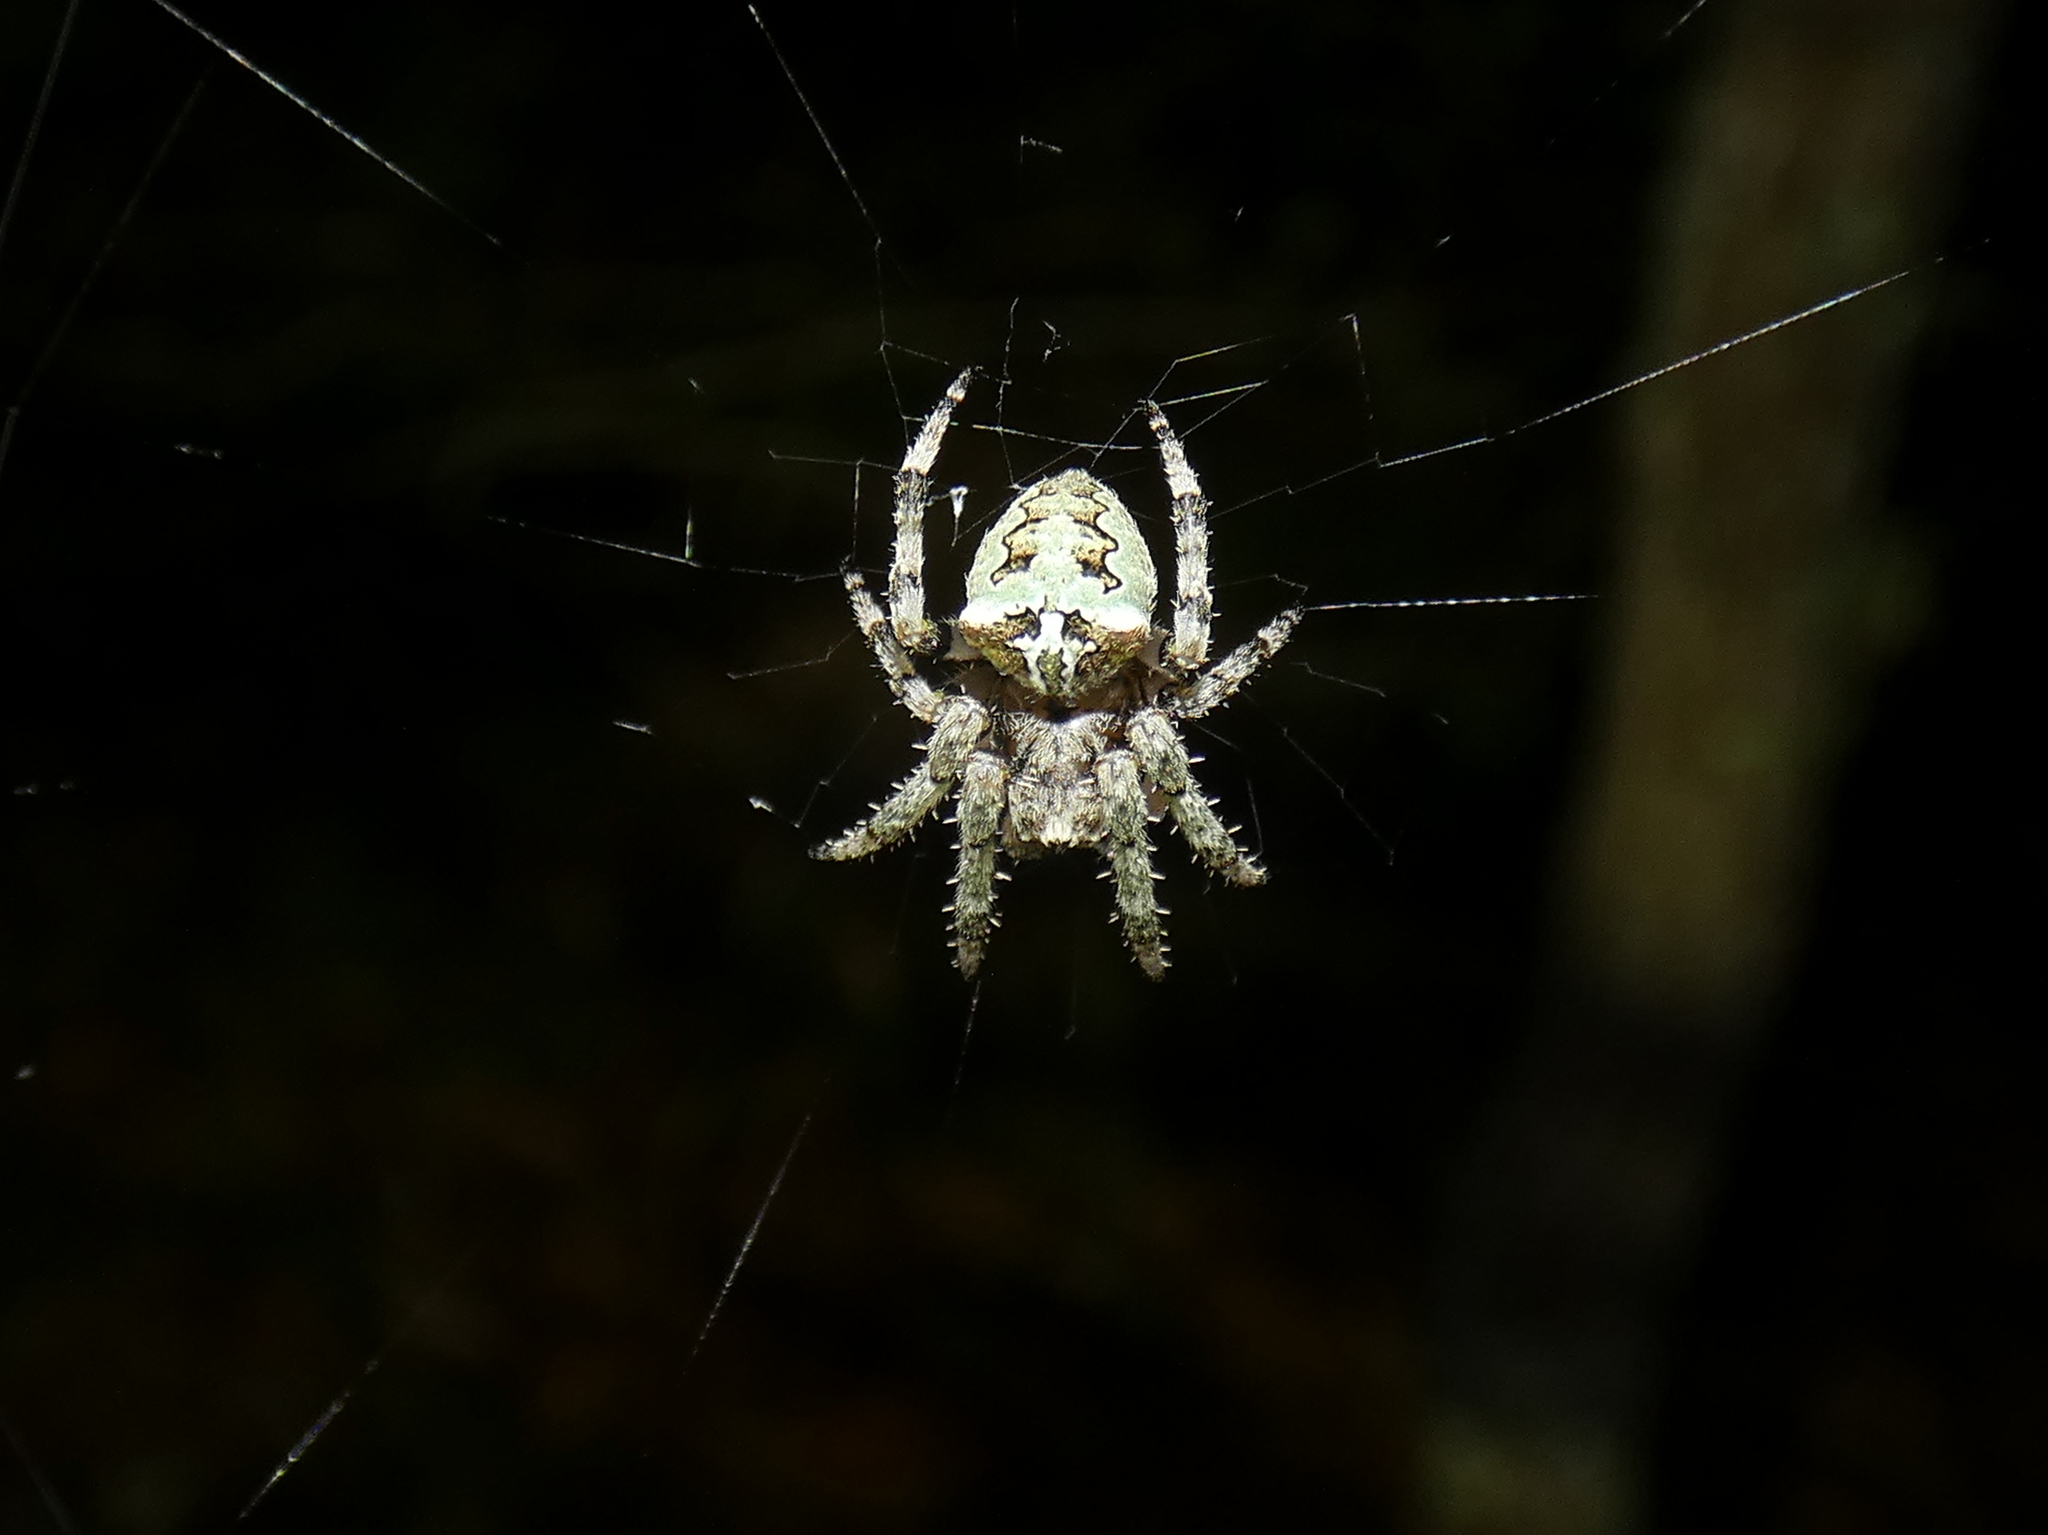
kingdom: Animalia
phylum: Arthropoda
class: Arachnida
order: Araneae
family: Araneidae
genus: Araneus
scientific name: Araneus bicentenarius
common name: Giant lichen orbweaver
